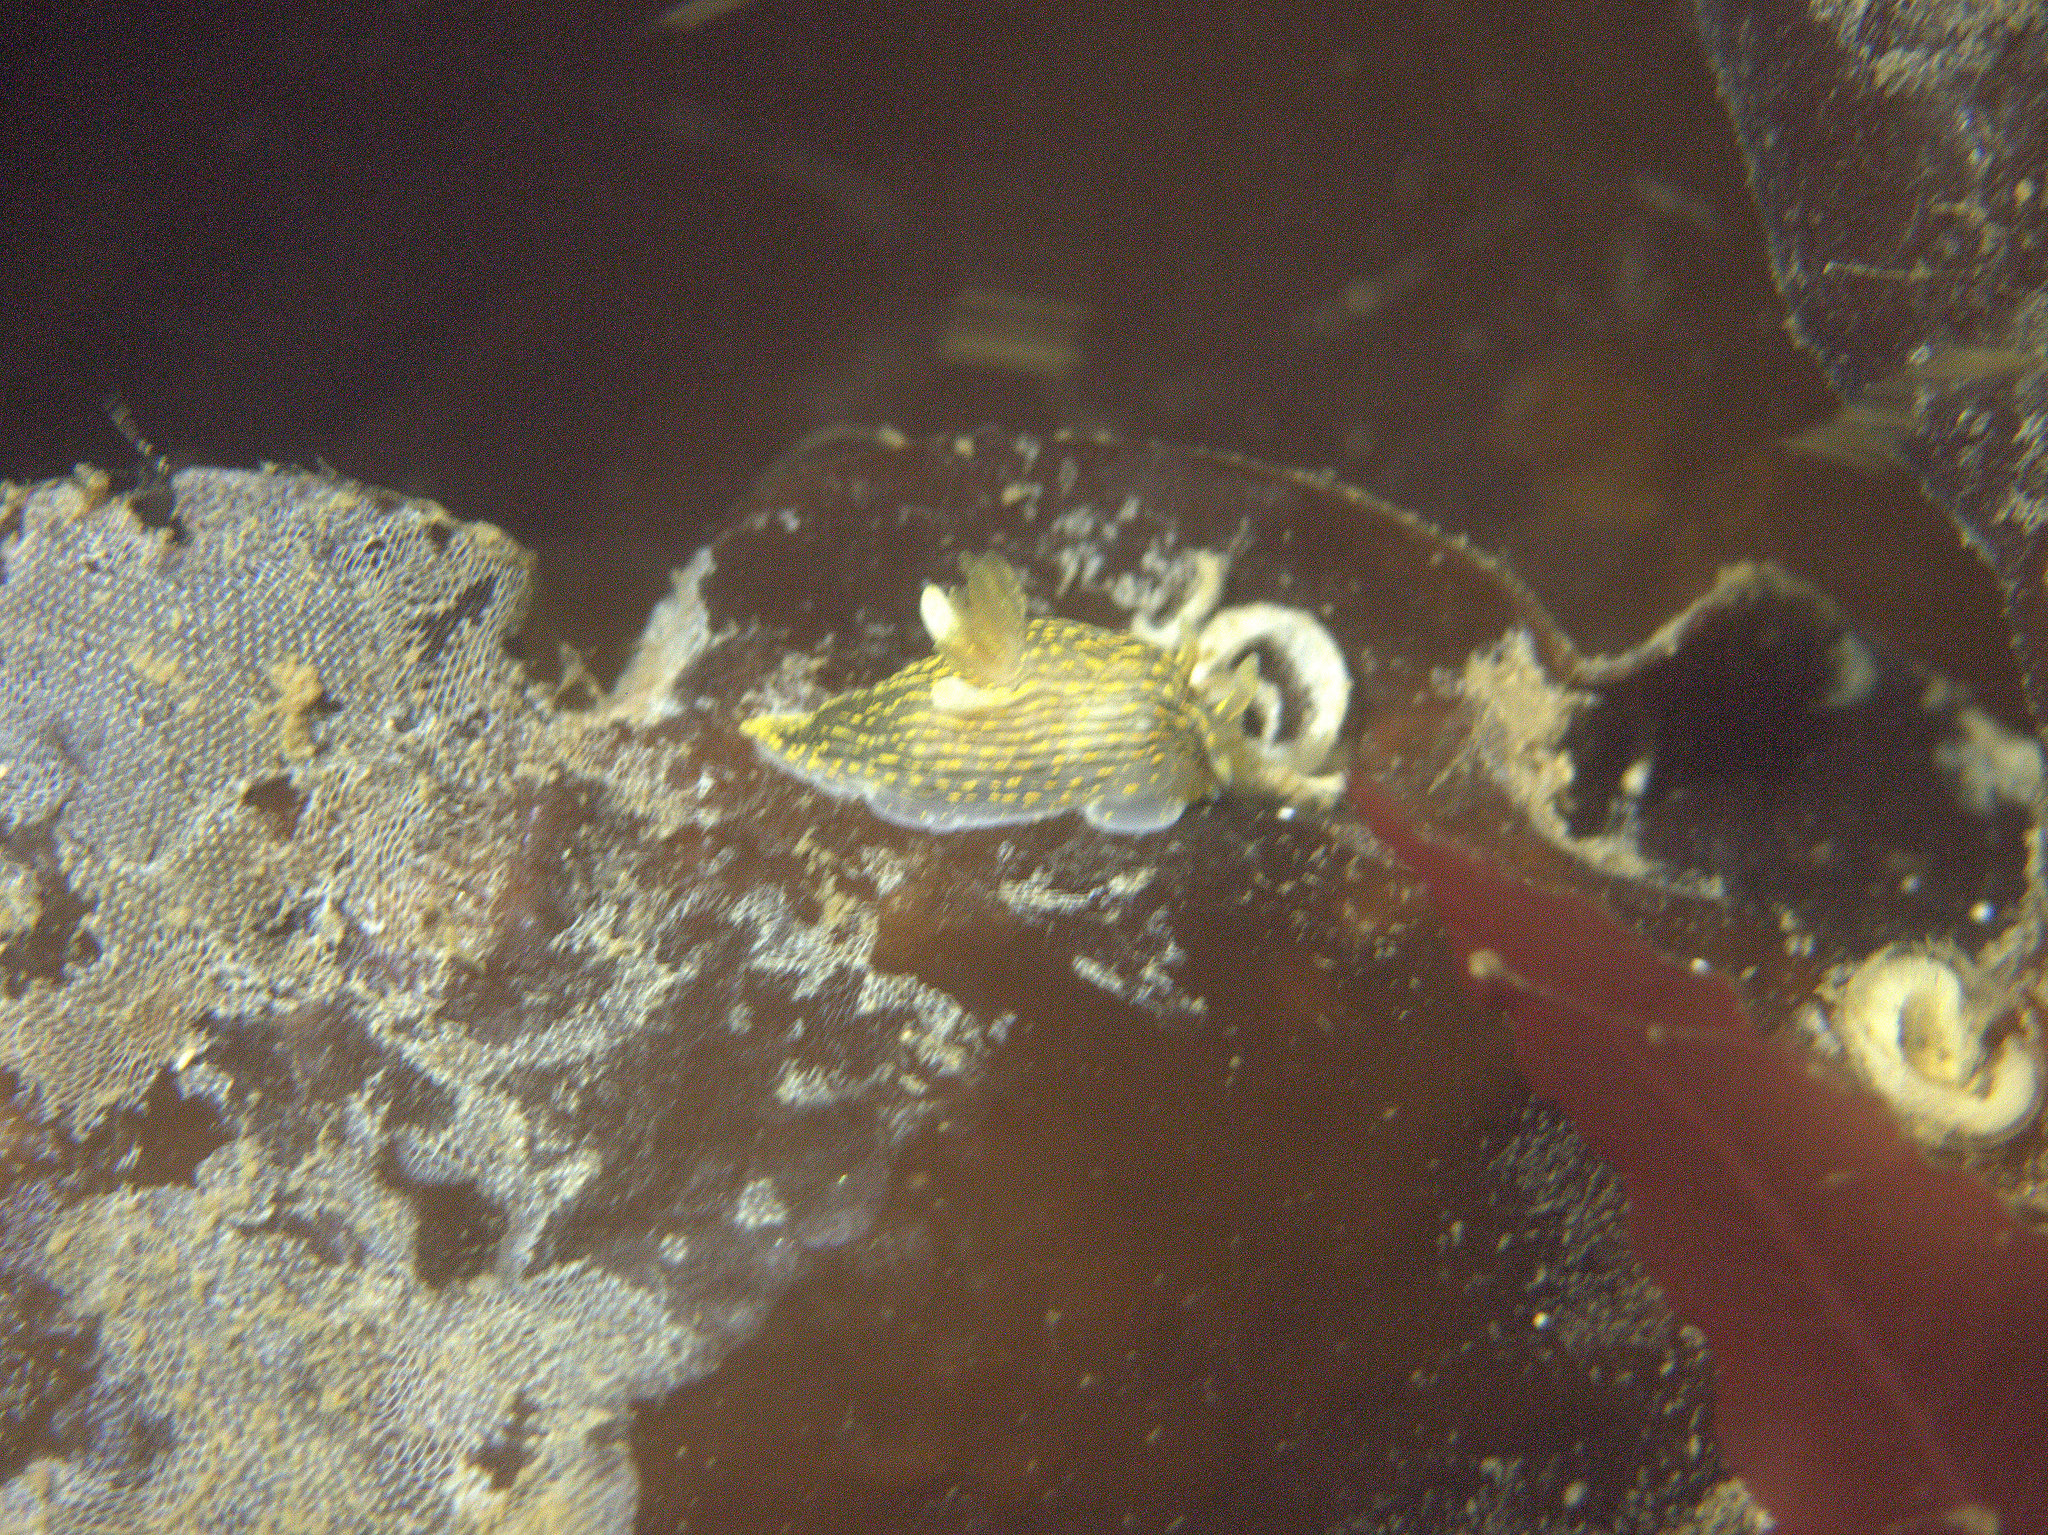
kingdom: Animalia
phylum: Mollusca
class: Gastropoda
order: Nudibranchia
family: Polyceridae
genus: Polycera
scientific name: Polycera quadrilineata
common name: Four-striped polycera
